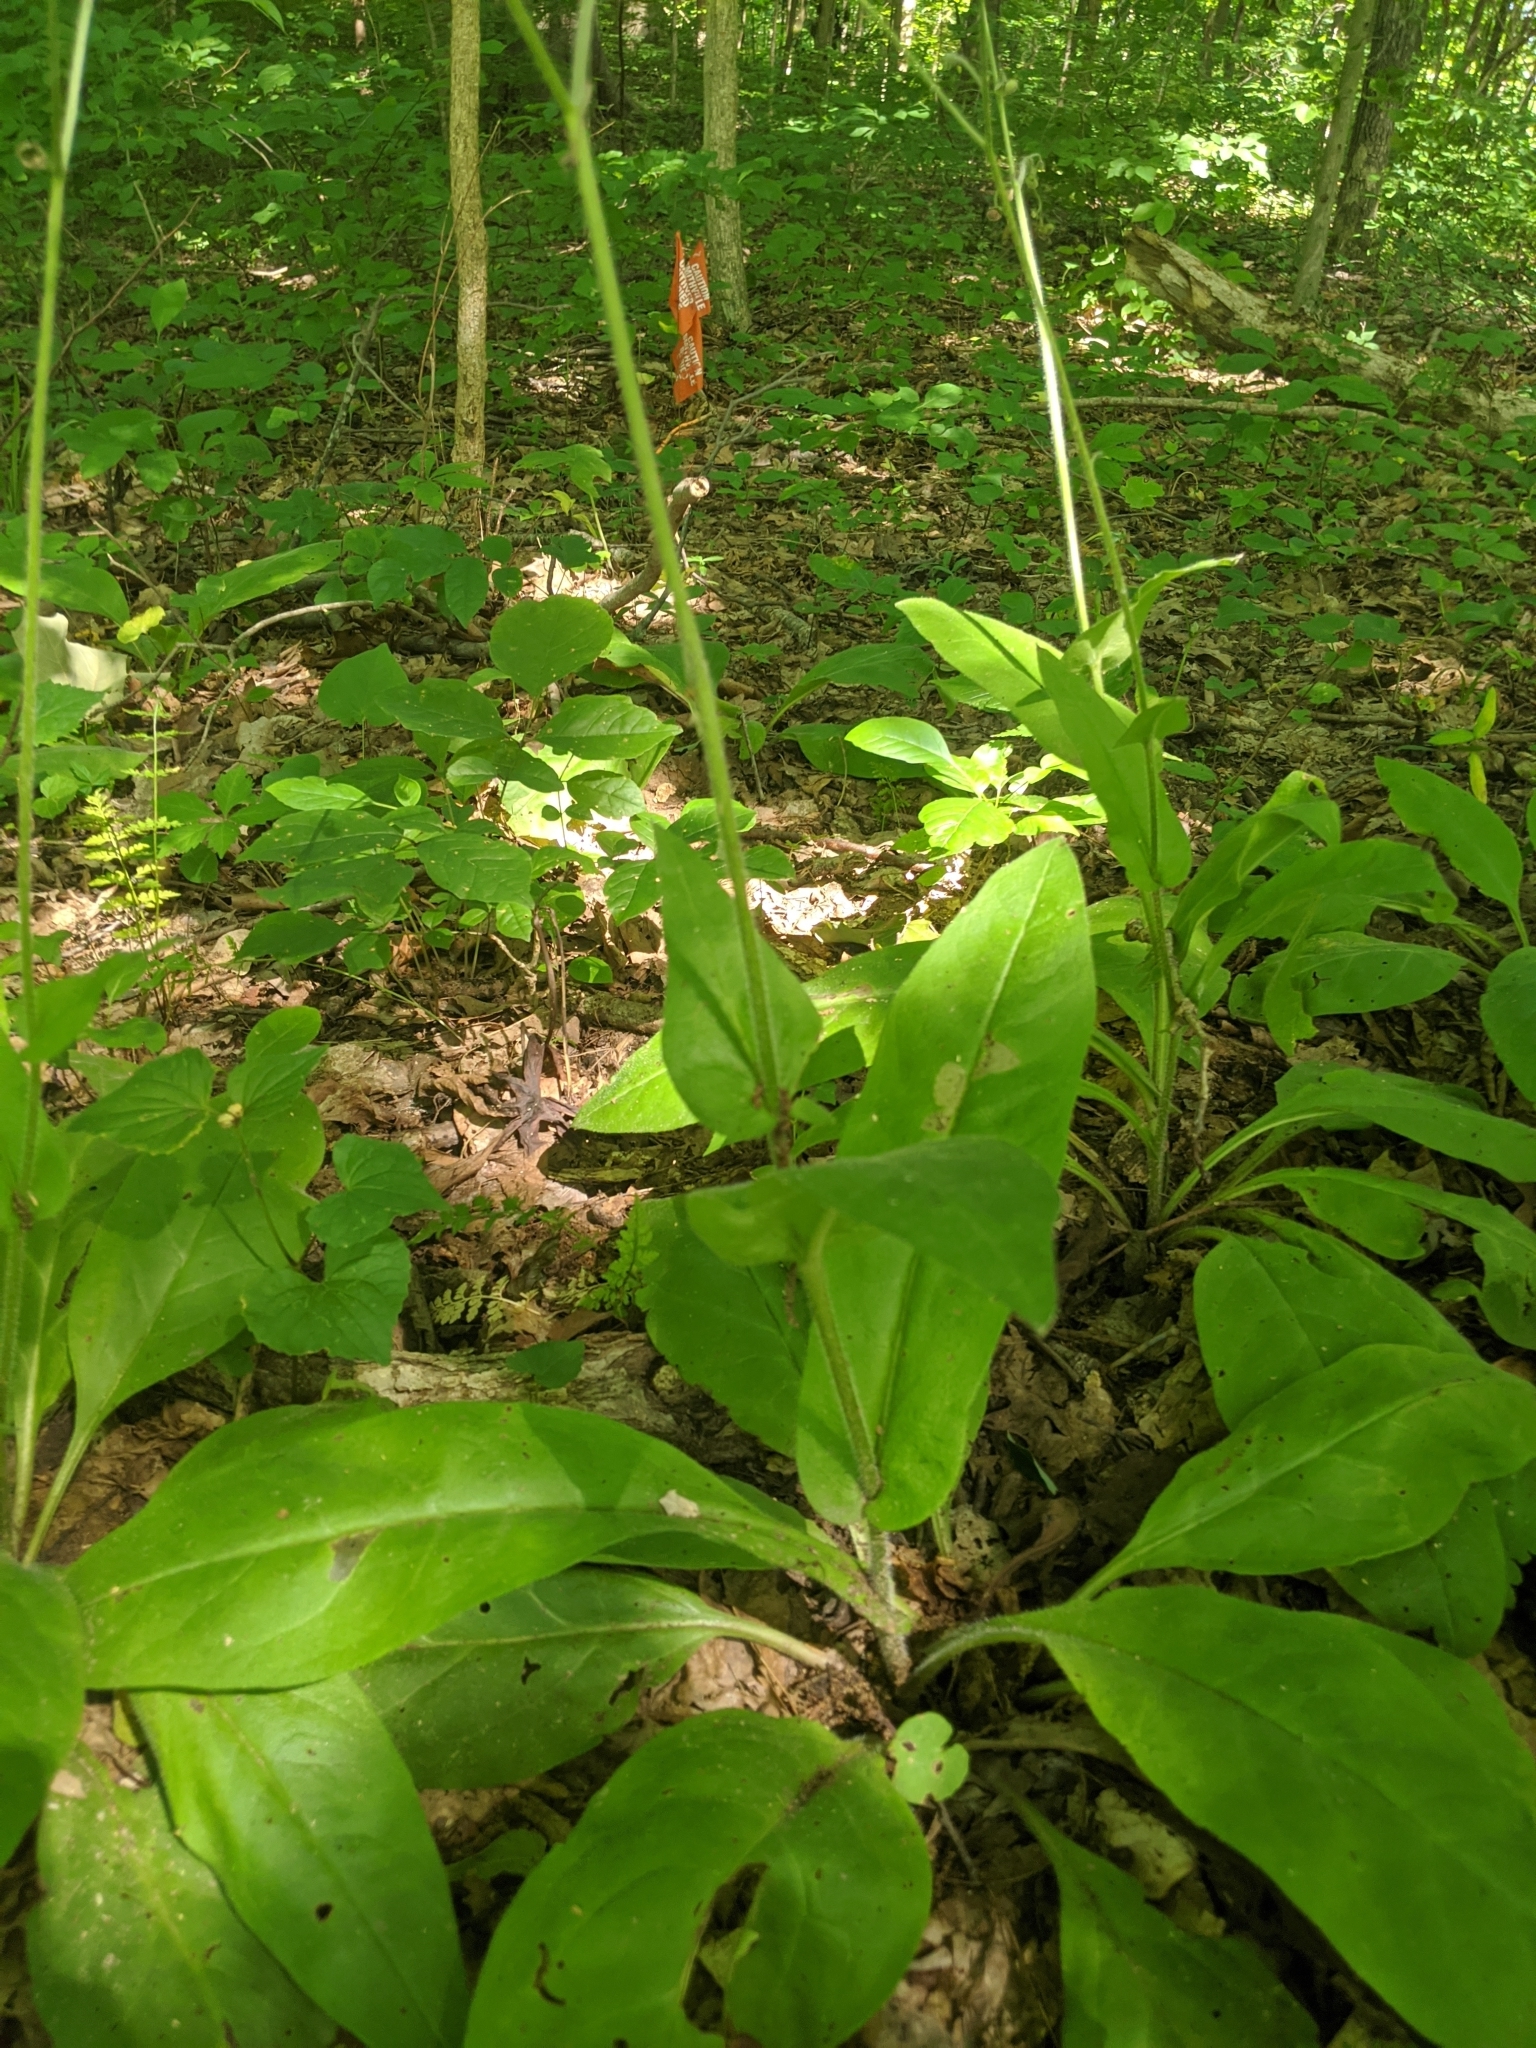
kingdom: Plantae
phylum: Tracheophyta
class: Magnoliopsida
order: Boraginales
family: Boraginaceae
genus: Andersonglossum
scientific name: Andersonglossum virginianum
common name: Wild comfrey
